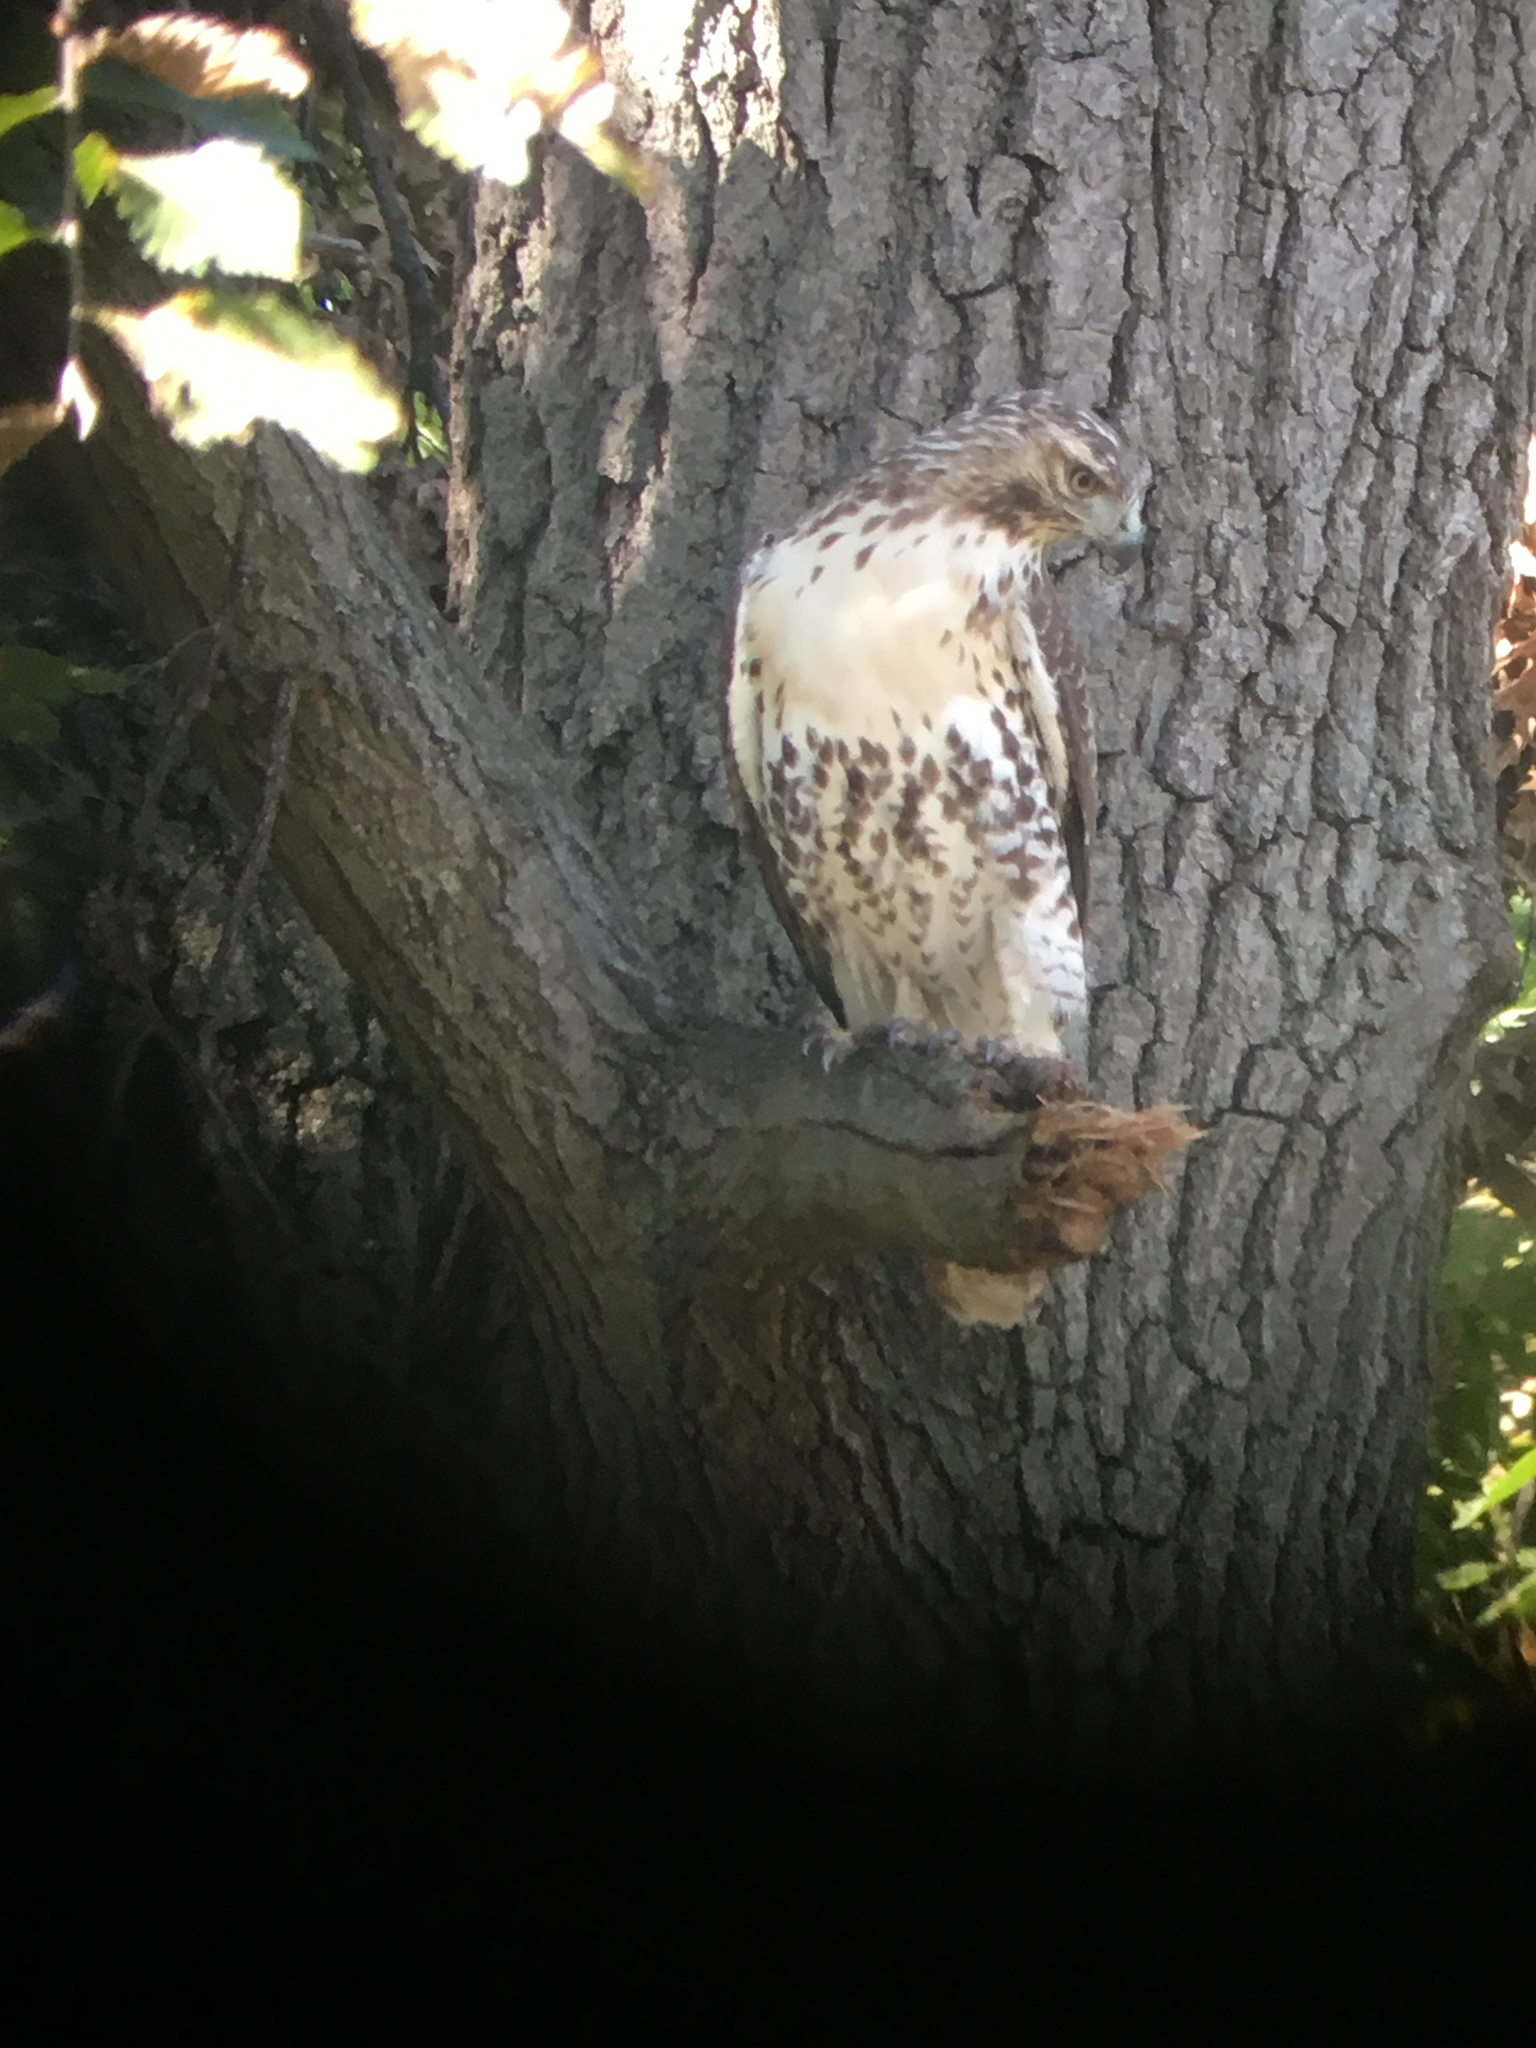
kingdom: Animalia
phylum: Chordata
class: Aves
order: Accipitriformes
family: Accipitridae
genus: Buteo
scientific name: Buteo jamaicensis
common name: Red-tailed hawk
